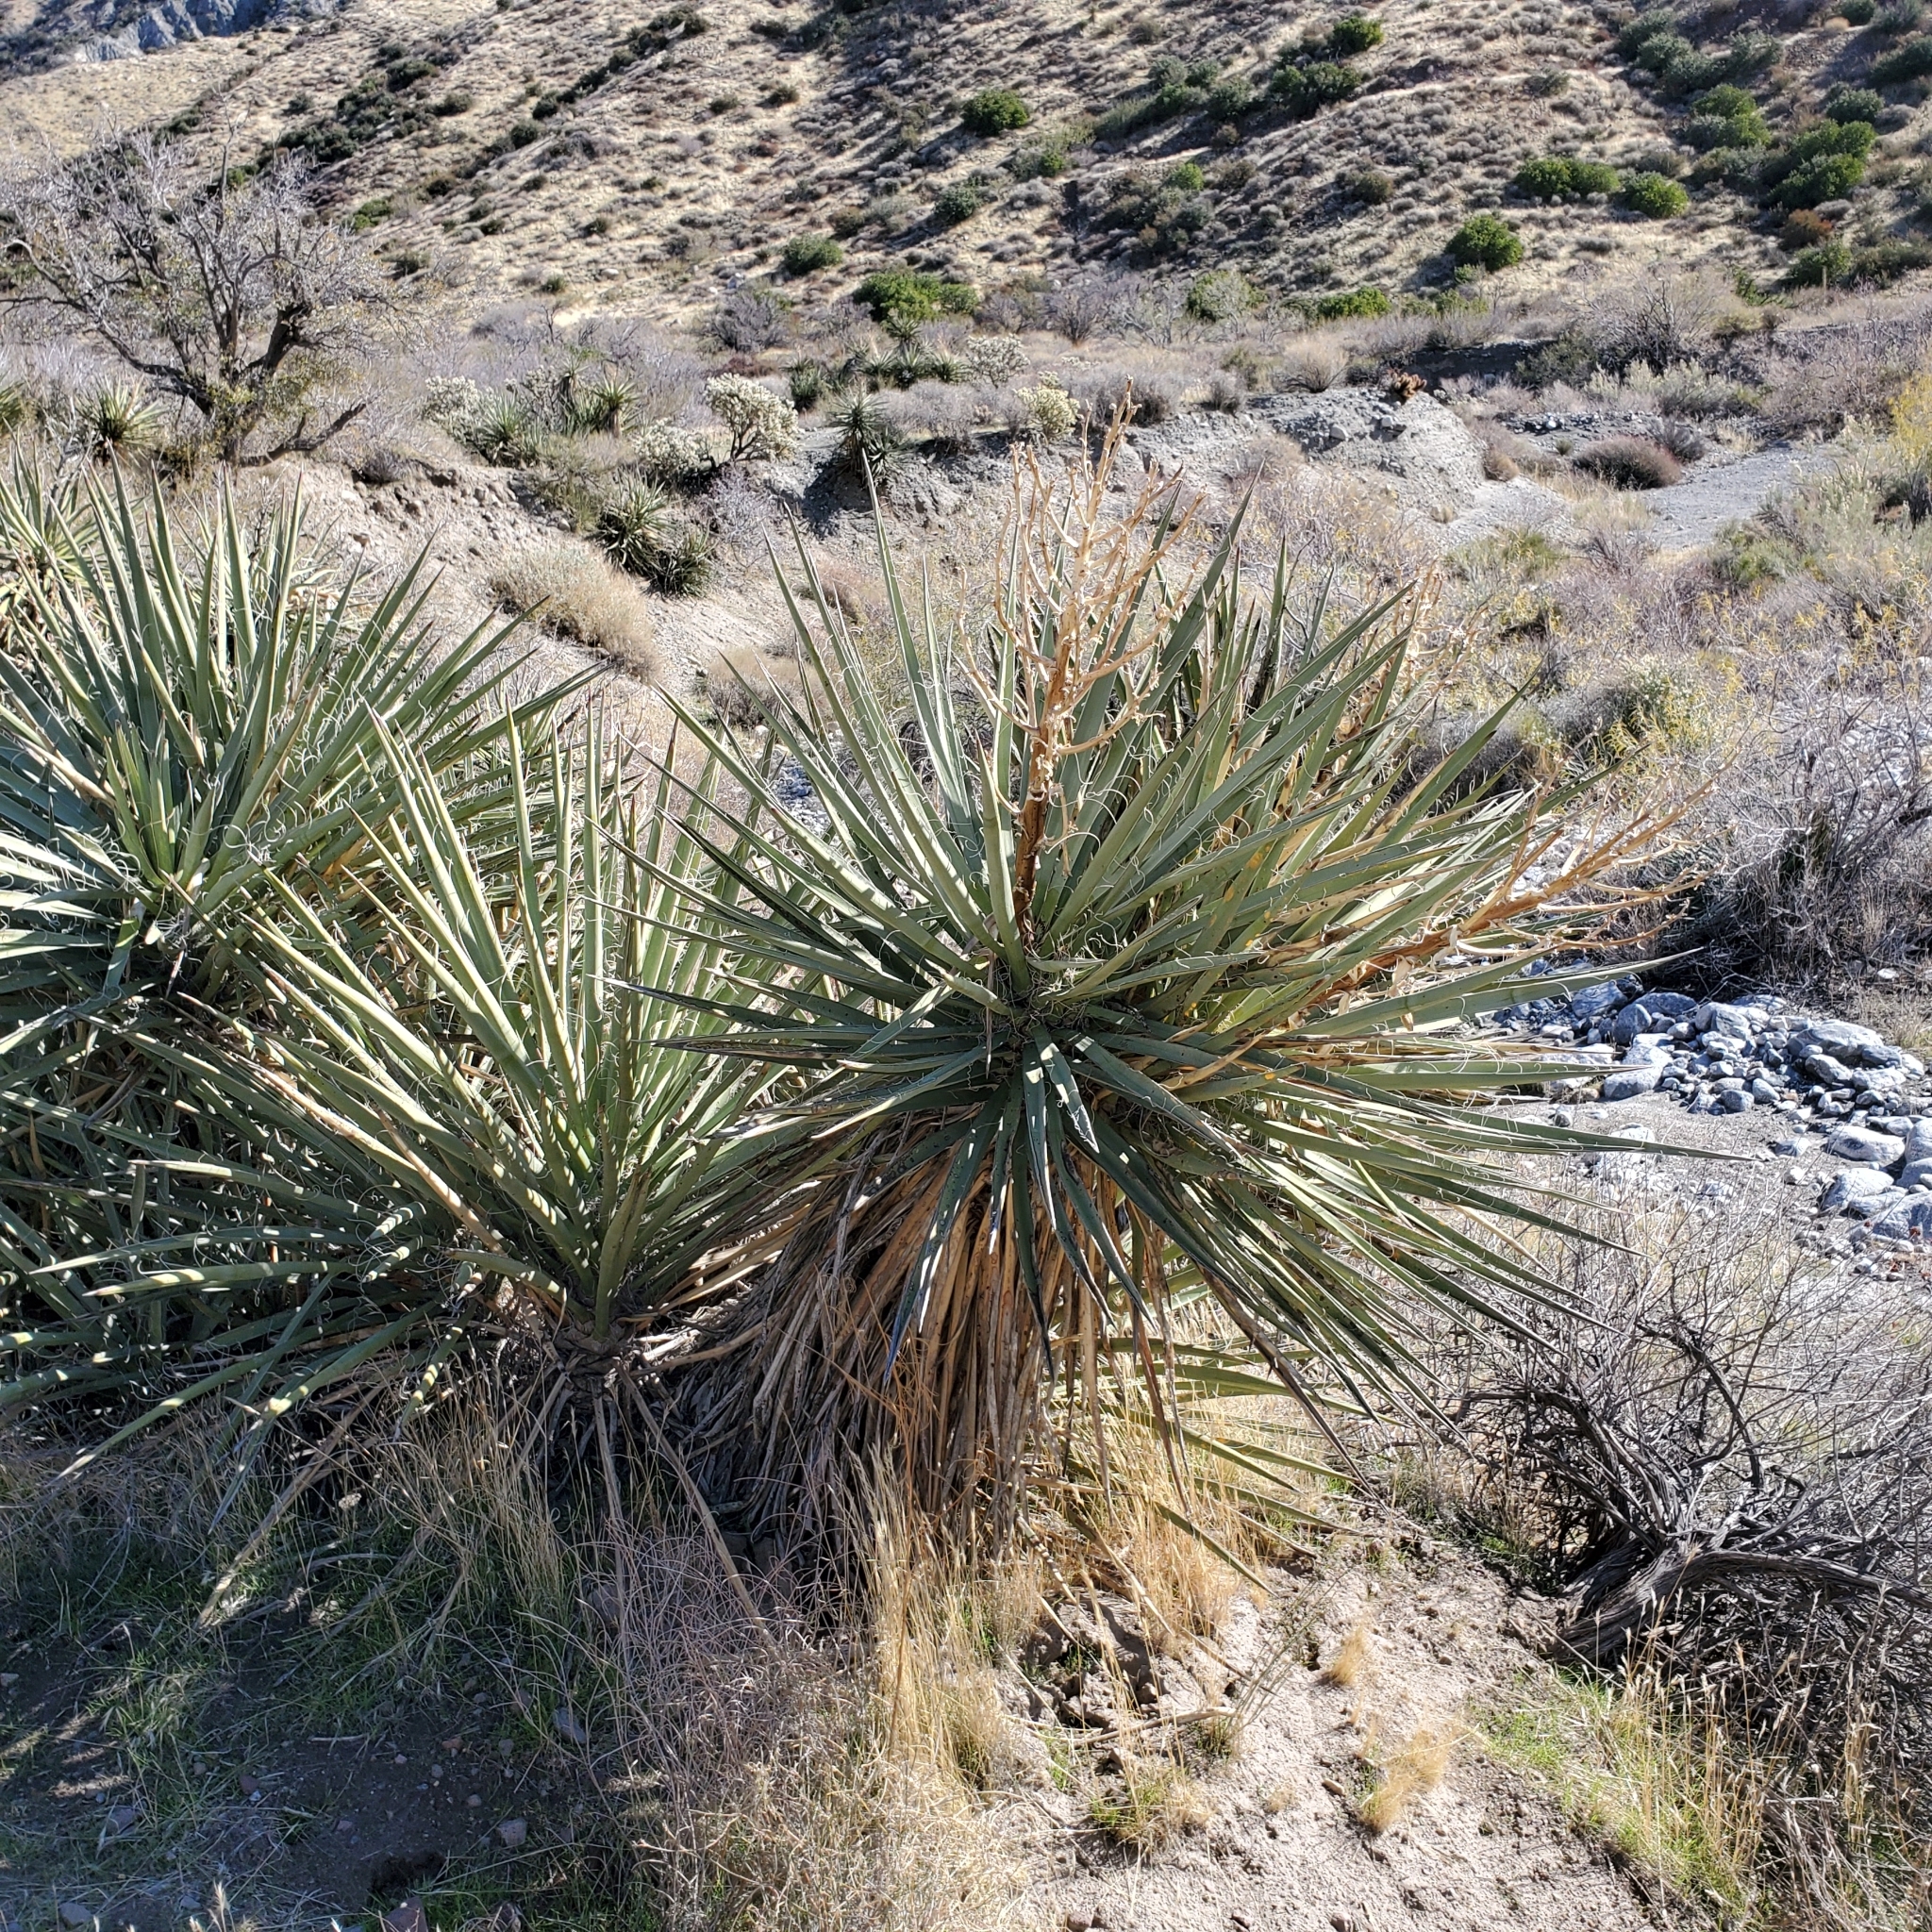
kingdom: Plantae
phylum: Tracheophyta
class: Liliopsida
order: Asparagales
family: Asparagaceae
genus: Yucca
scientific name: Yucca schidigera
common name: Mojave yucca
